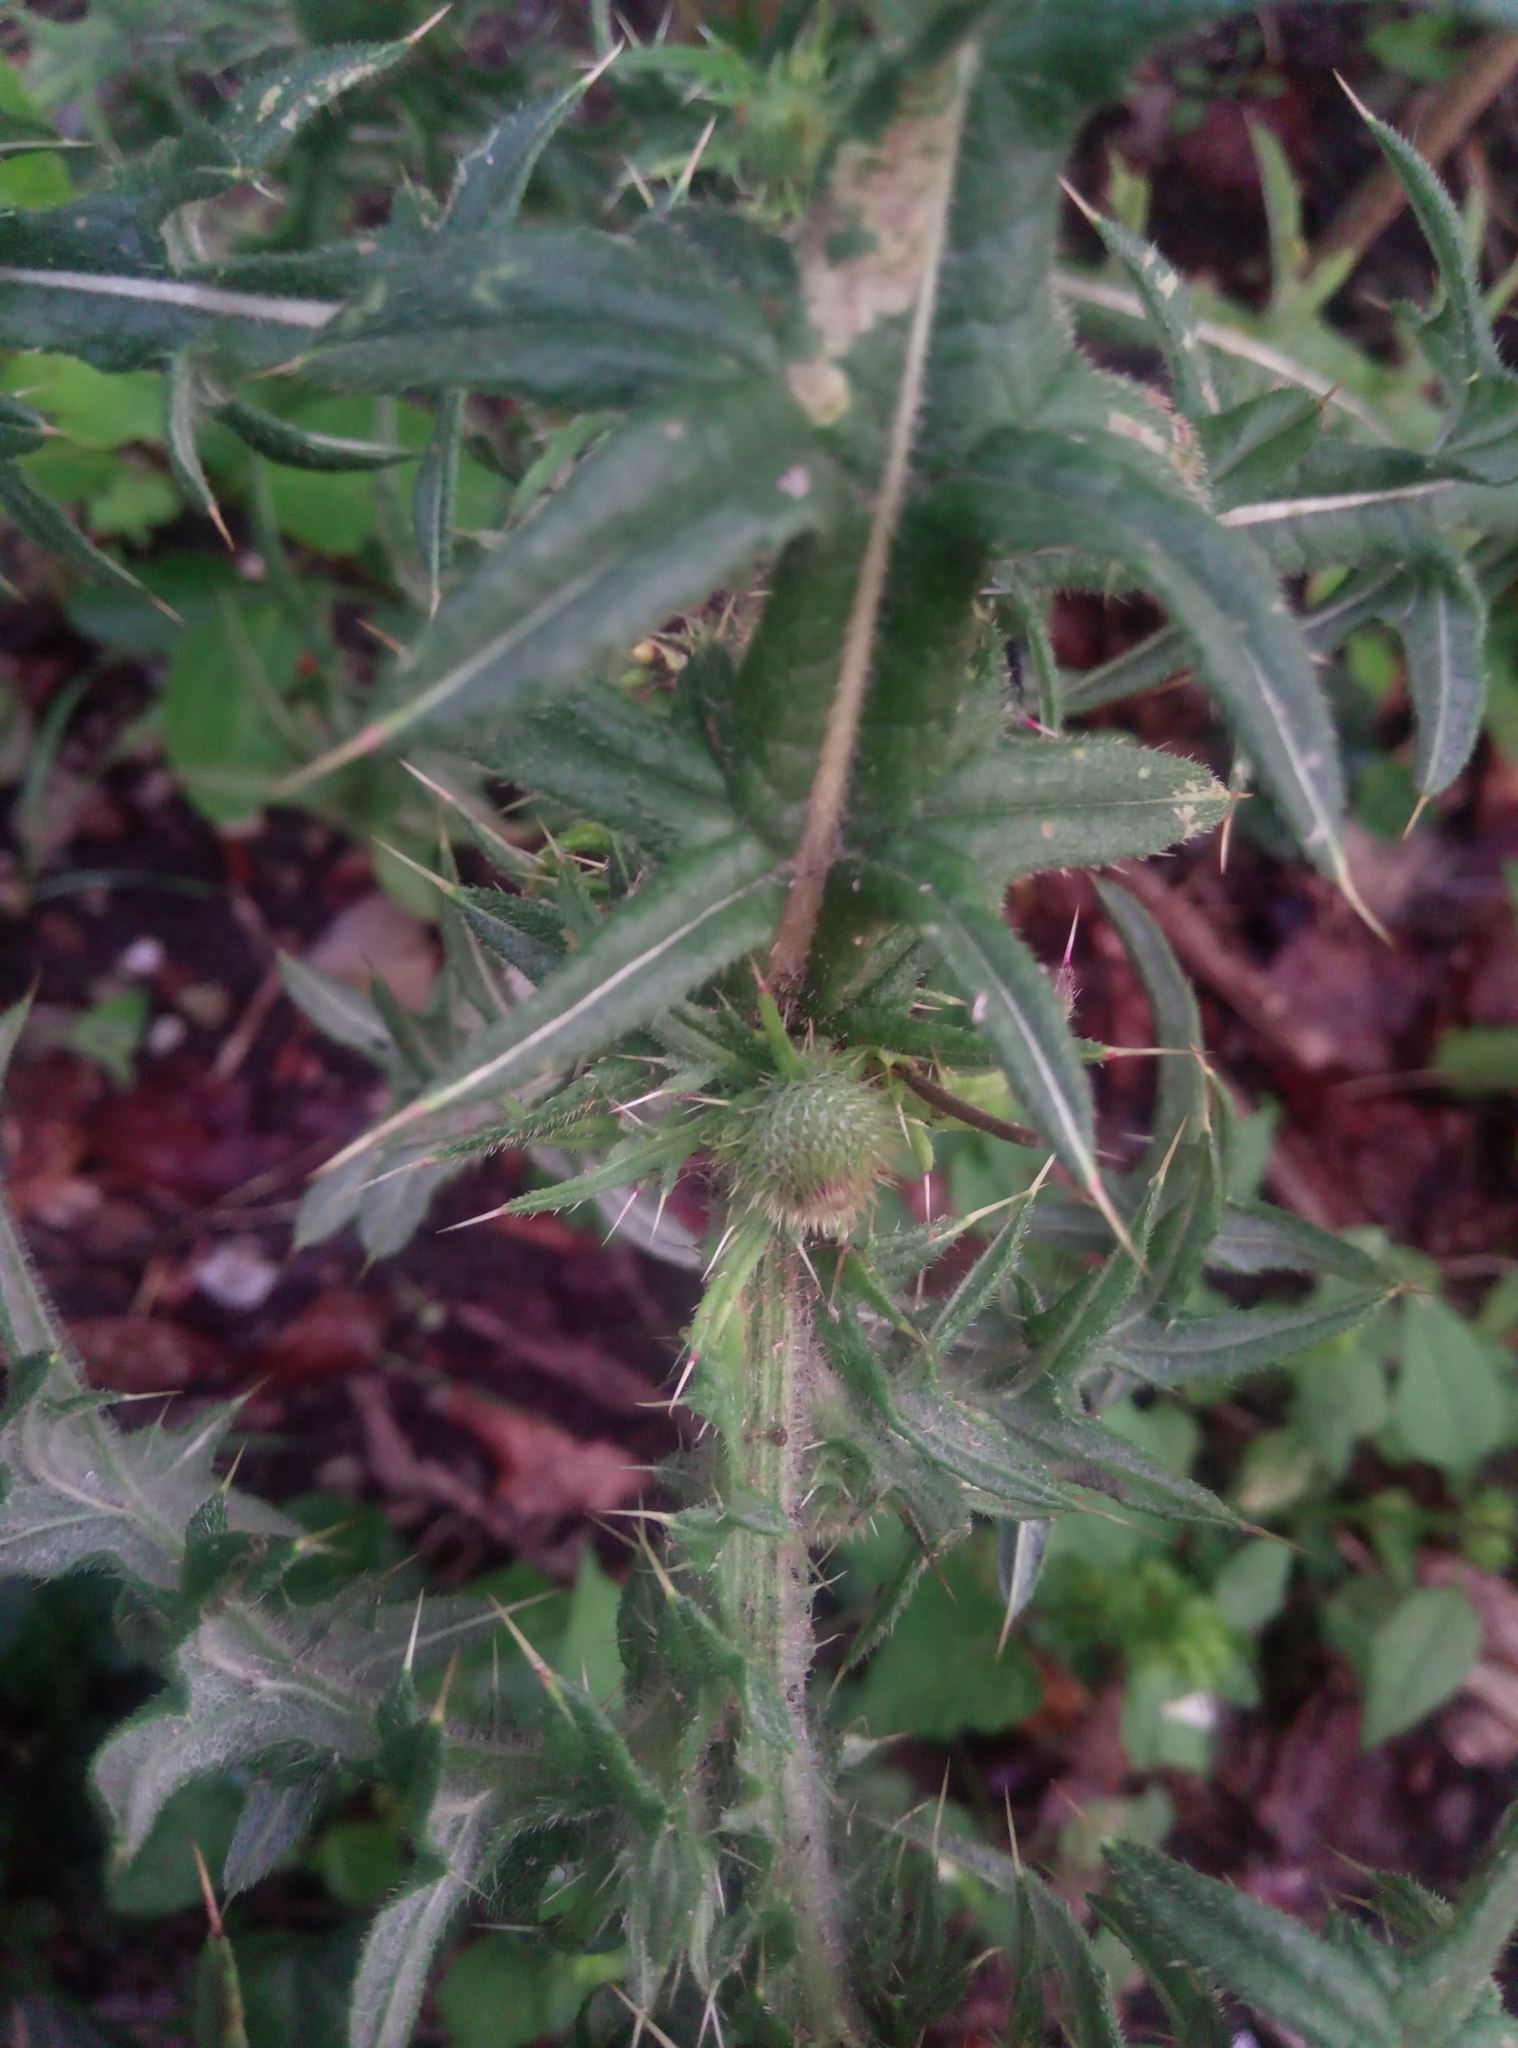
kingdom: Plantae
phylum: Tracheophyta
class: Magnoliopsida
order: Asterales
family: Asteraceae
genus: Cirsium
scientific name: Cirsium vulgare
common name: Bull thistle
